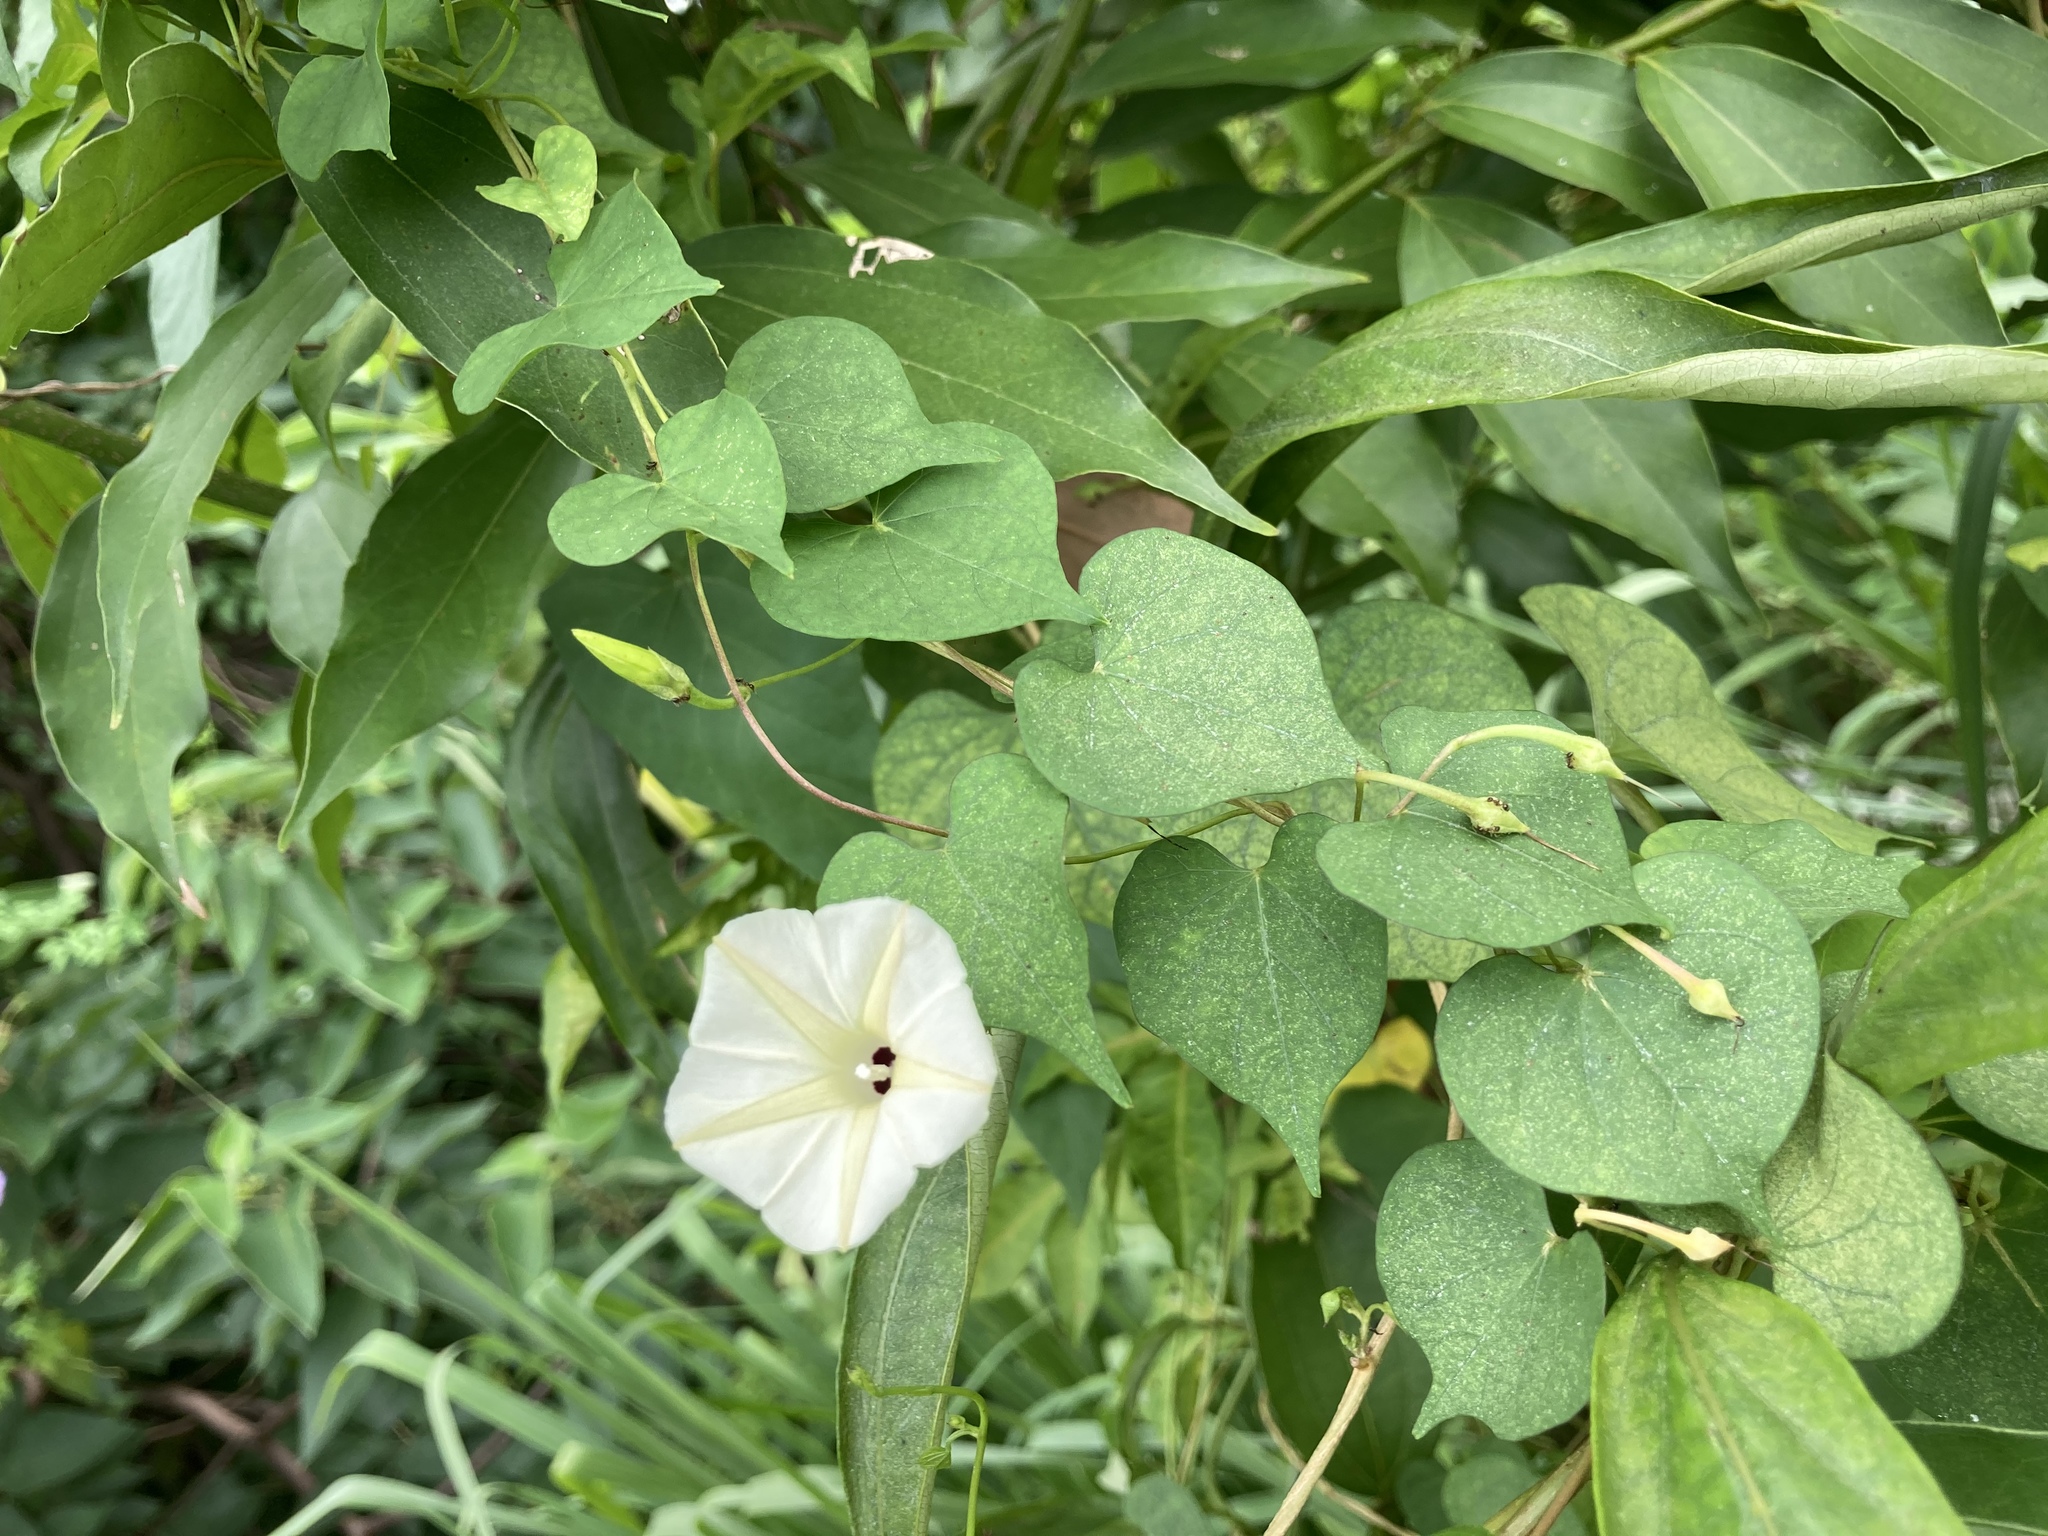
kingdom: Plantae
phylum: Tracheophyta
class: Magnoliopsida
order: Solanales
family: Convolvulaceae
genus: Ipomoea
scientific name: Ipomoea obscura
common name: Obscure morning-glory
